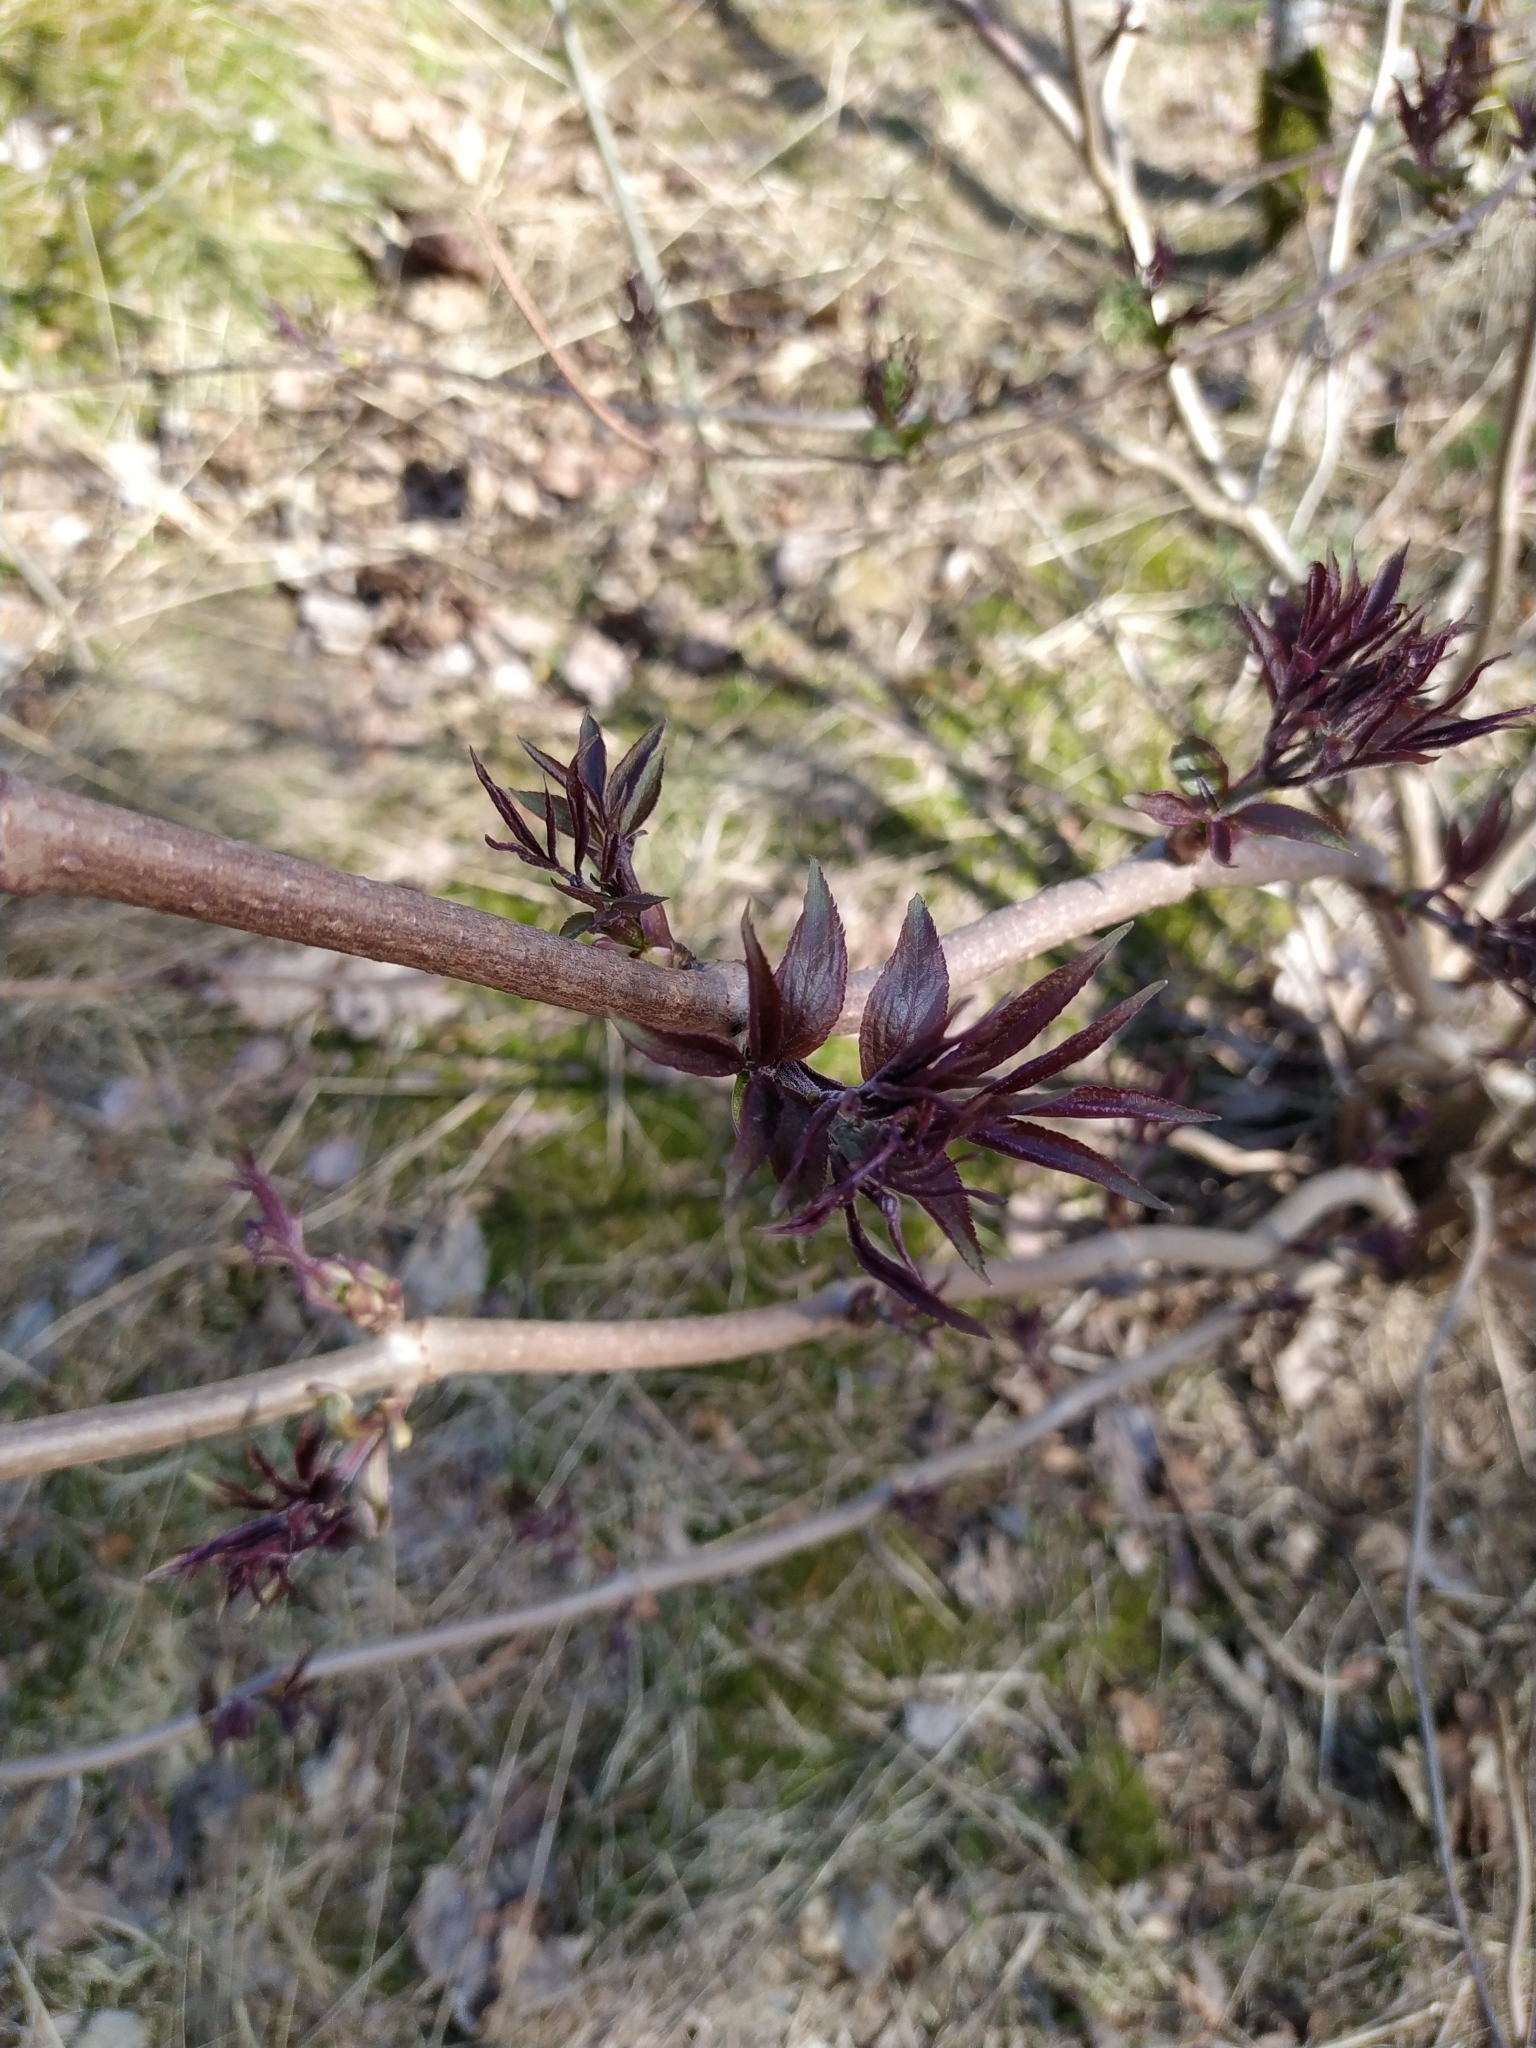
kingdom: Plantae
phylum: Tracheophyta
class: Magnoliopsida
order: Dipsacales
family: Viburnaceae
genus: Sambucus
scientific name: Sambucus racemosa
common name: Red-berried elder
